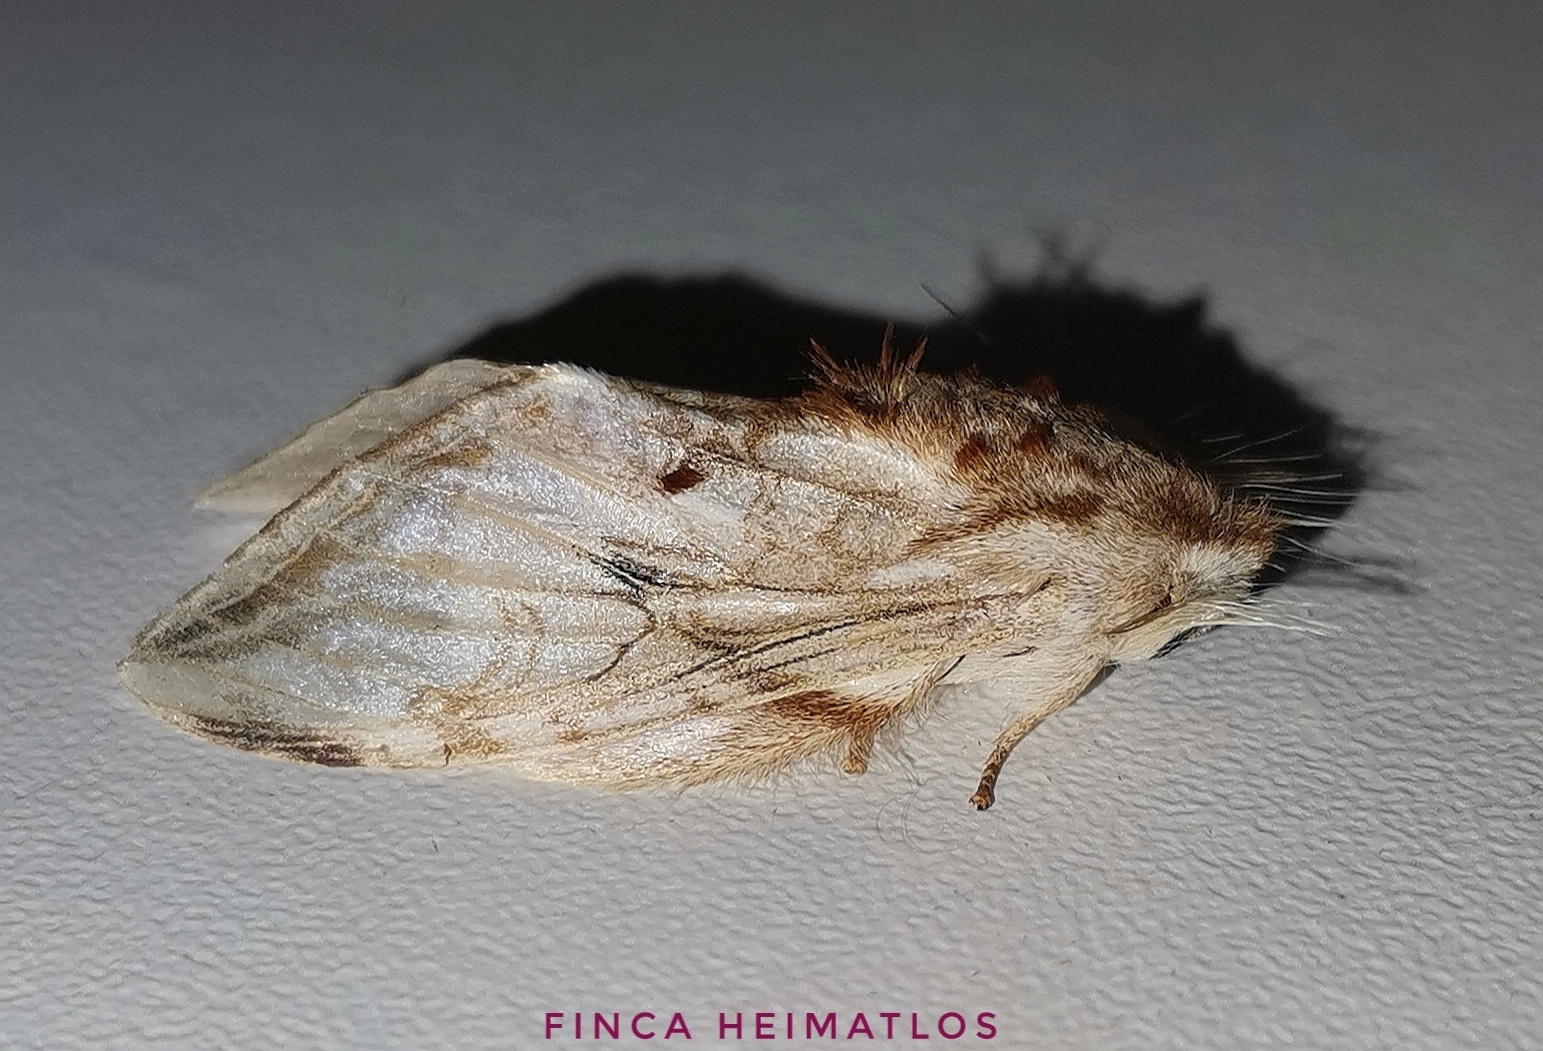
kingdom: Animalia
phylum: Arthropoda
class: Insecta
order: Lepidoptera
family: Notodontidae
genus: Trumanda
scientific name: Trumanda
